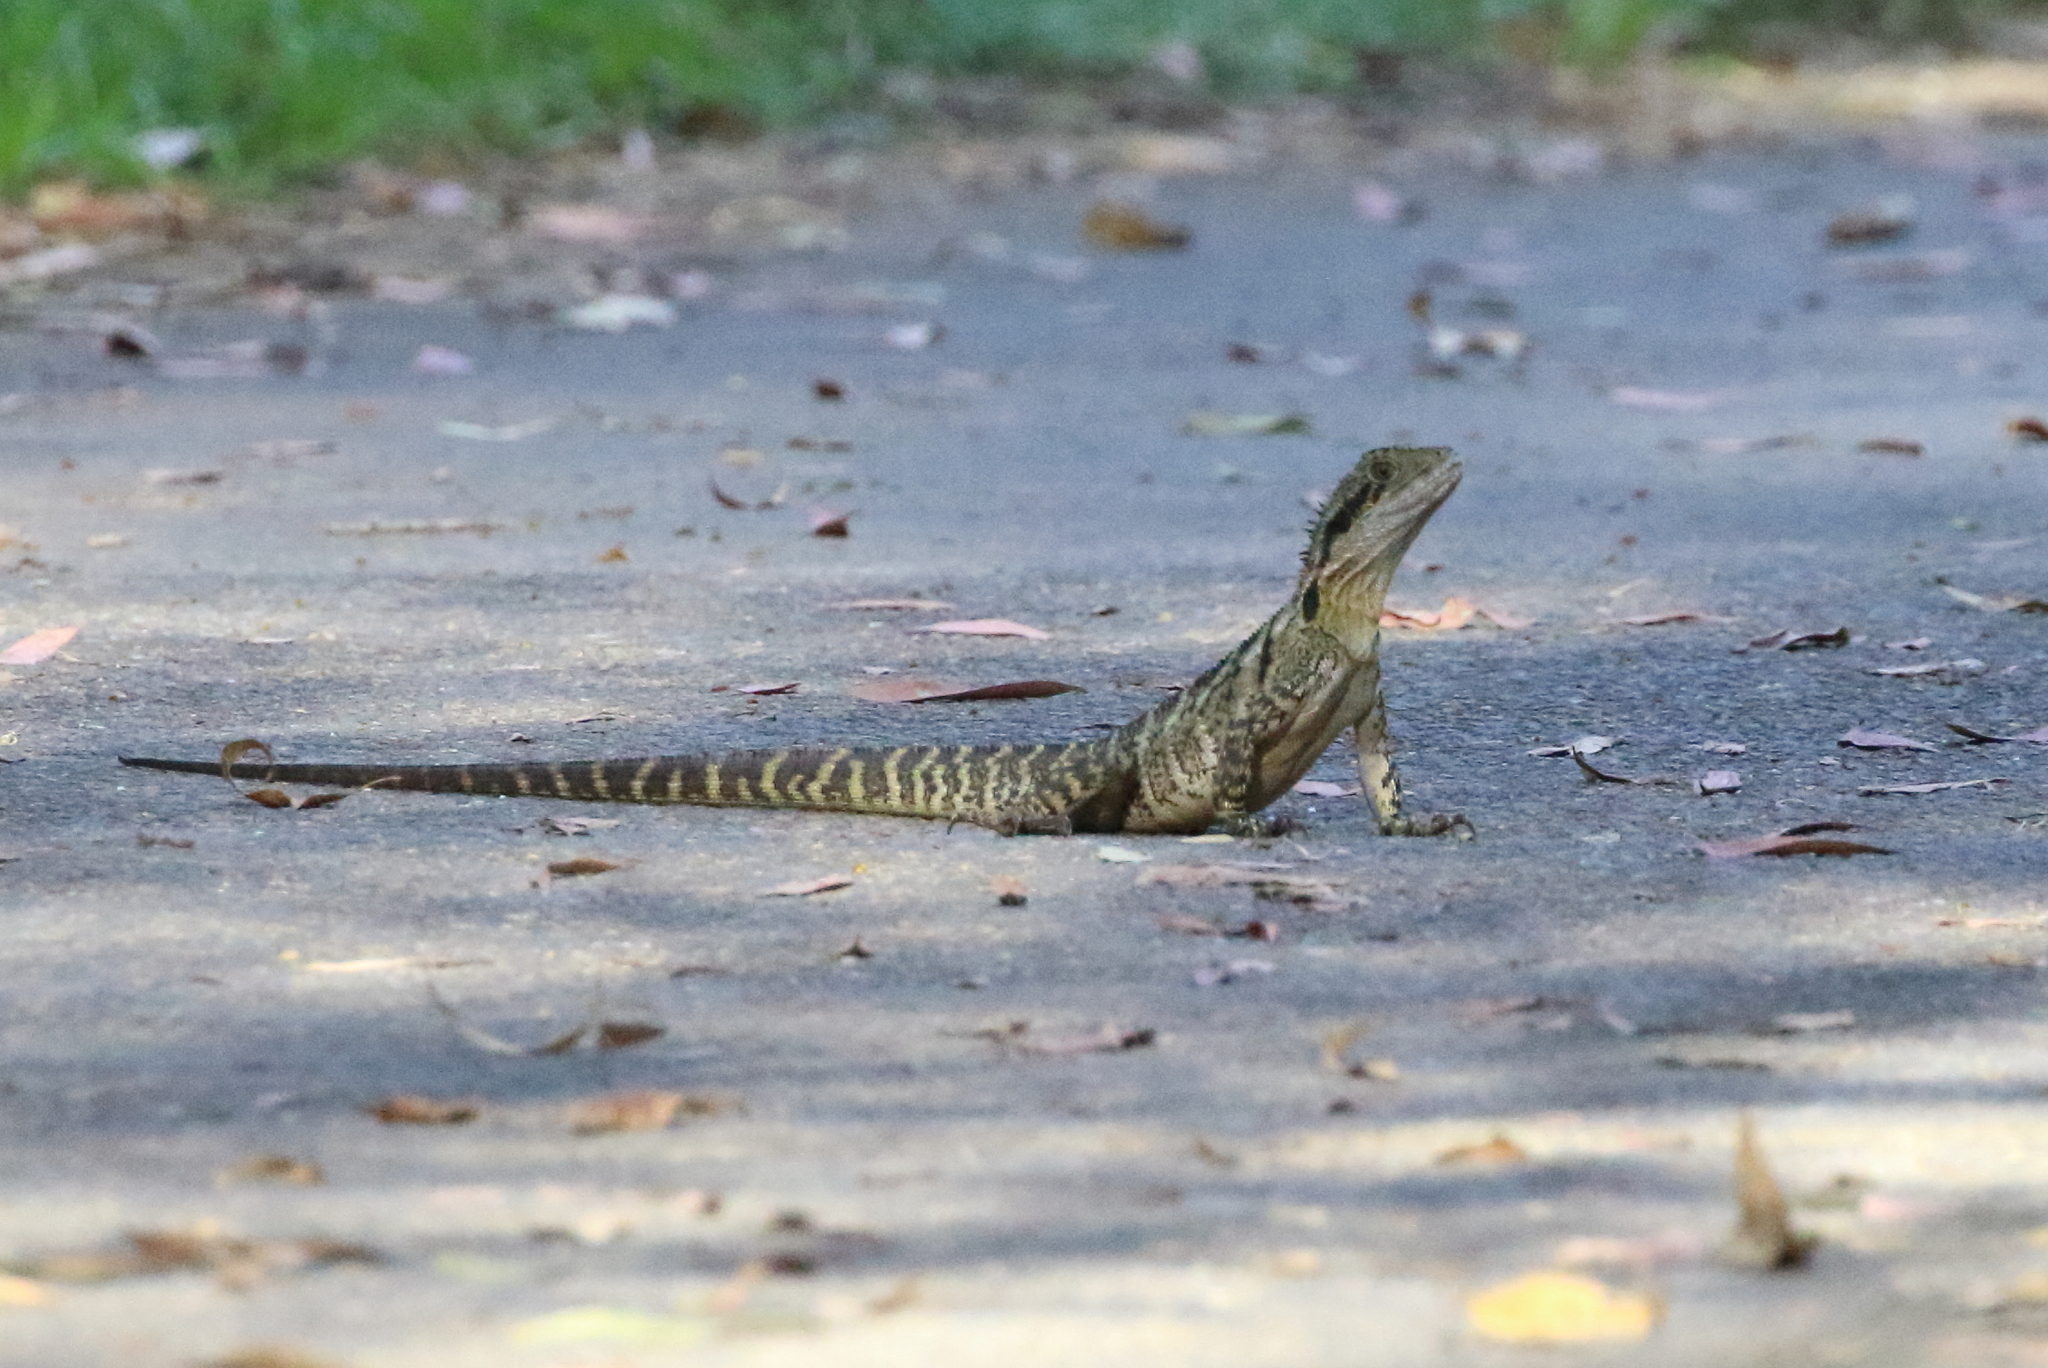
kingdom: Animalia
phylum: Chordata
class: Squamata
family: Agamidae
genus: Intellagama
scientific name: Intellagama lesueurii
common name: Eastern water dragon
